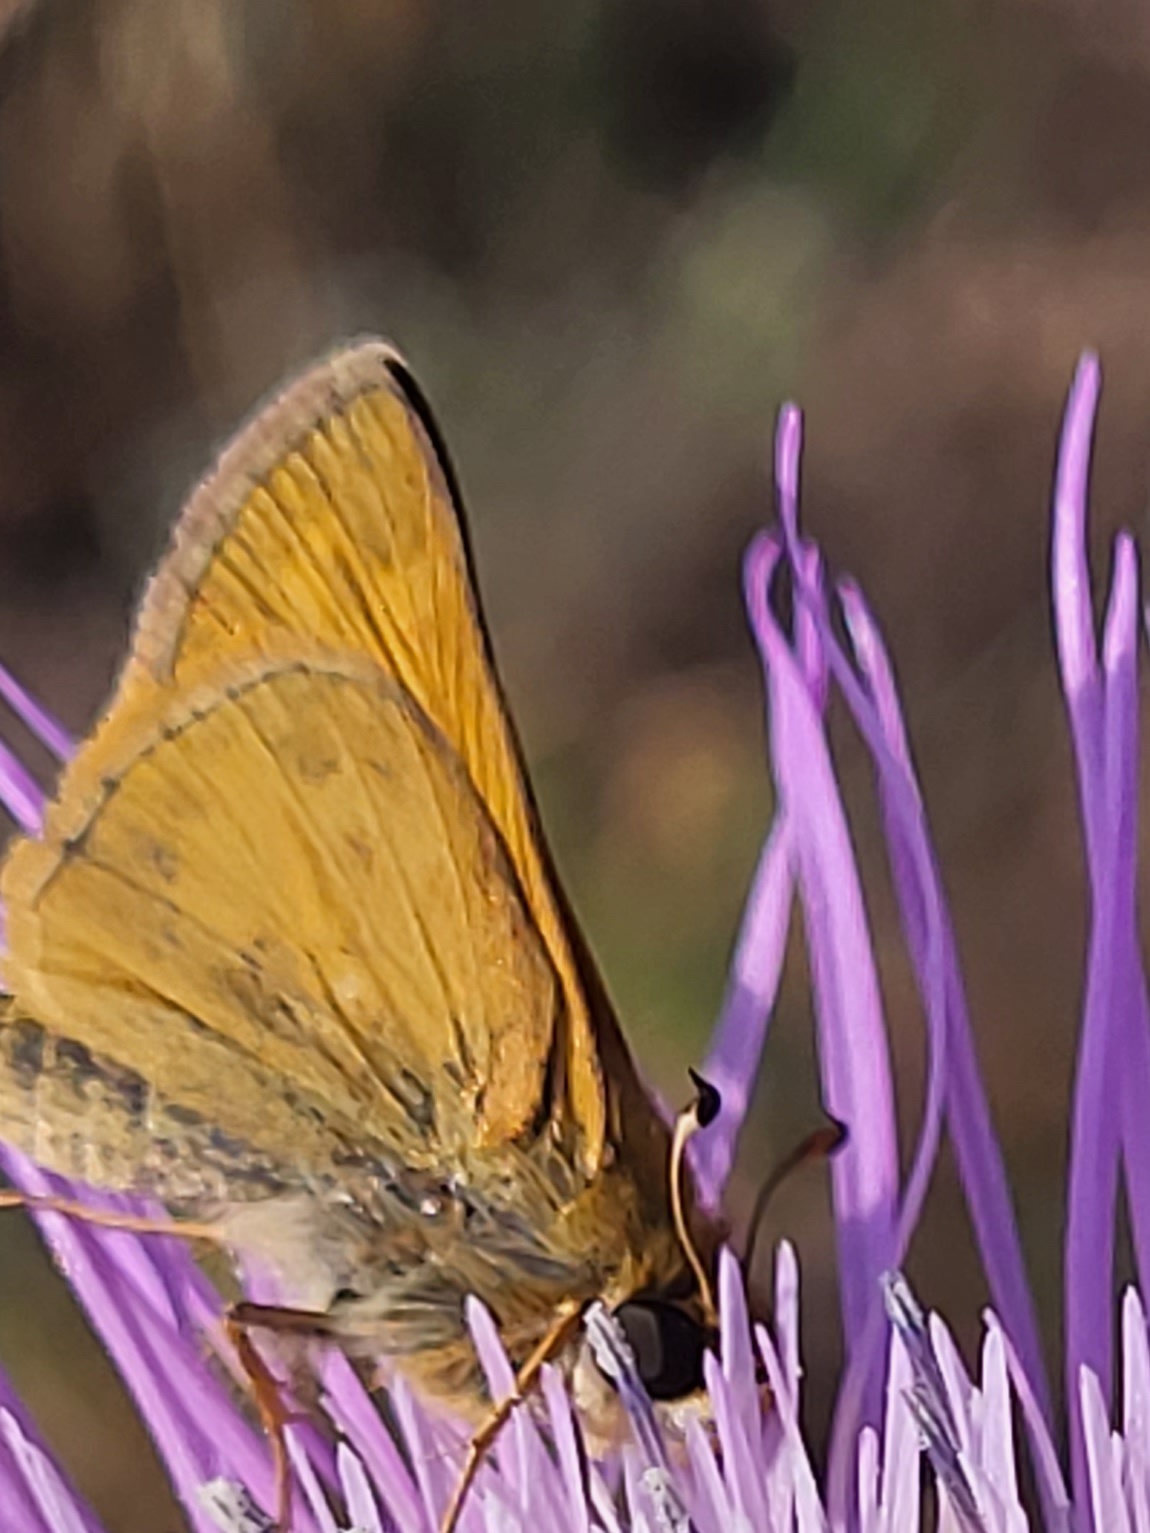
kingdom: Animalia
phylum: Arthropoda
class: Insecta
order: Lepidoptera
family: Hesperiidae
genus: Atalopedes
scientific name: Atalopedes
